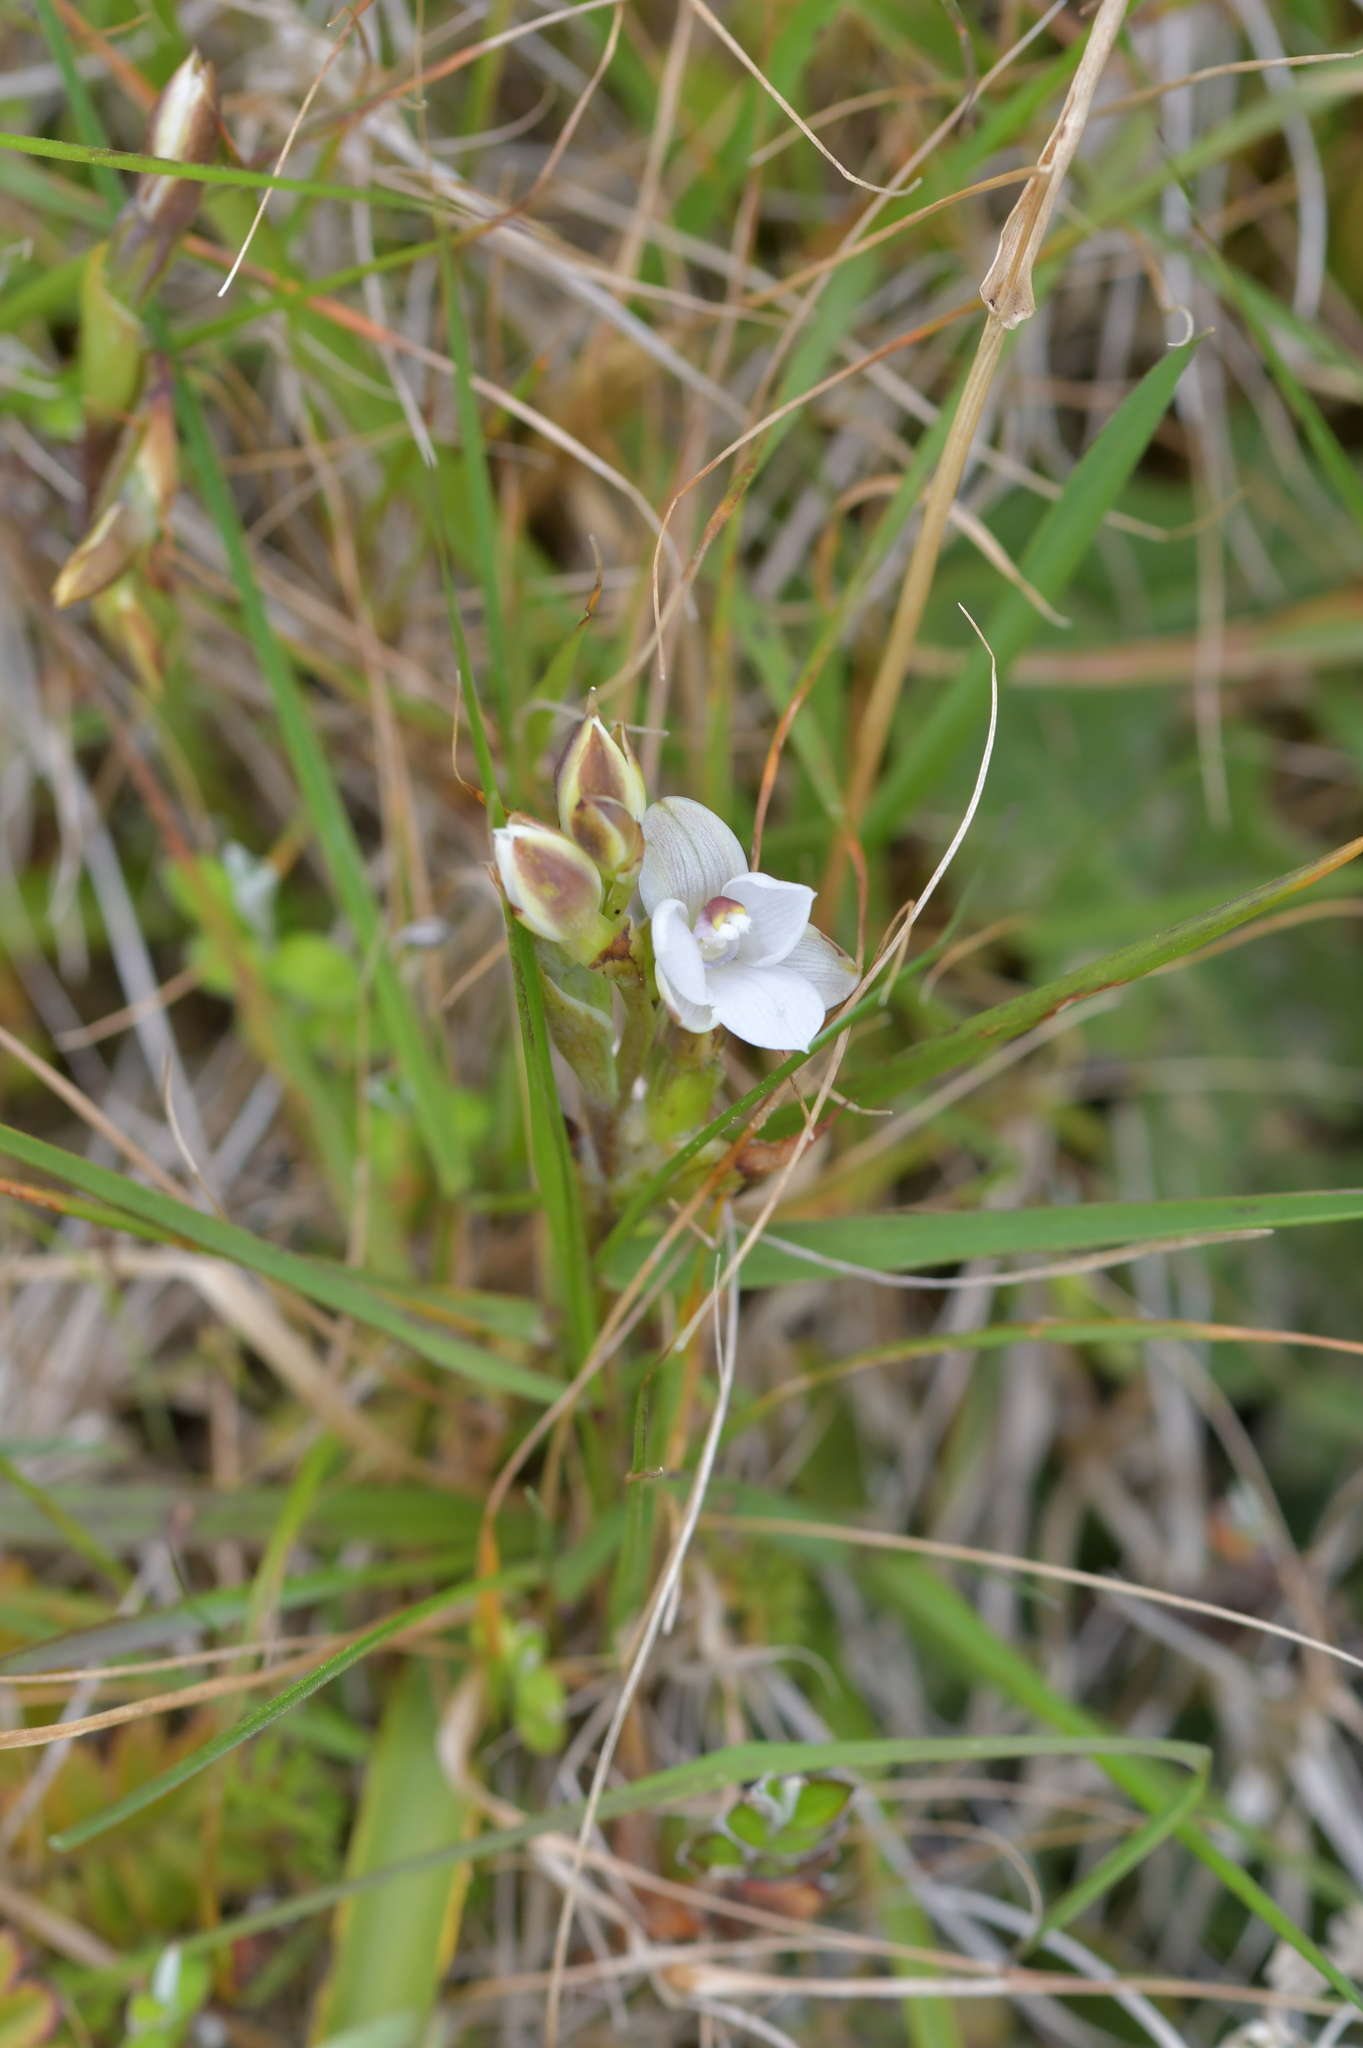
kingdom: Plantae
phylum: Tracheophyta
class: Liliopsida
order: Asparagales
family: Orchidaceae
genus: Thelymitra
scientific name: Thelymitra longifolia
